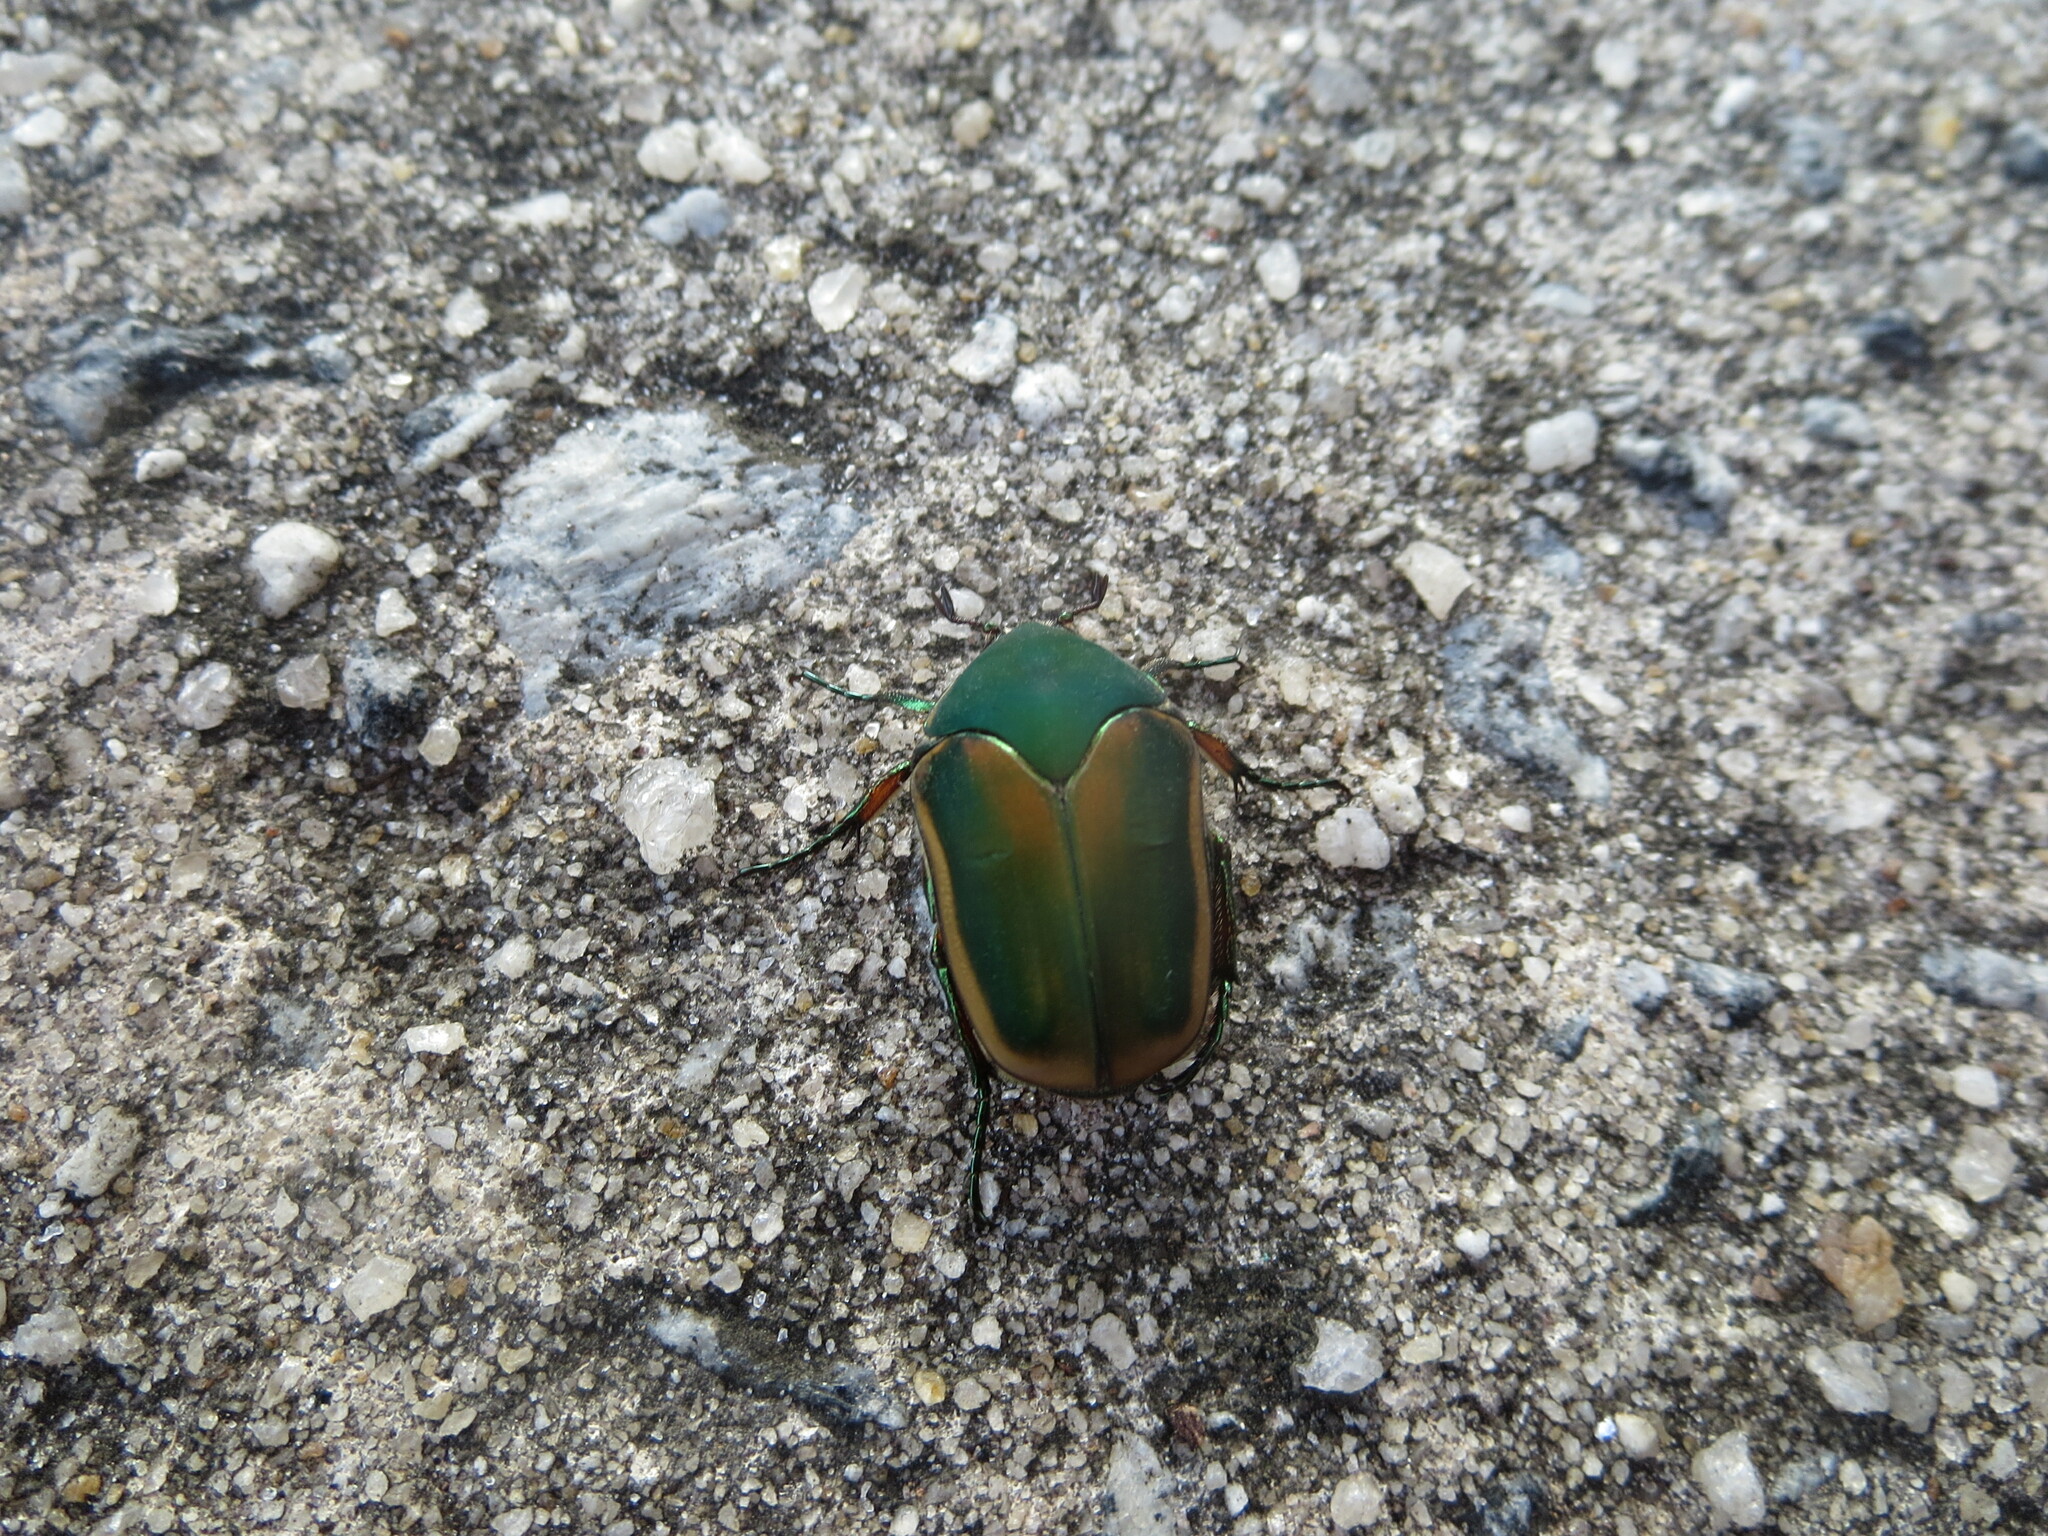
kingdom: Animalia
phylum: Arthropoda
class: Insecta
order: Coleoptera
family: Scarabaeidae
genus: Cotinis
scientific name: Cotinis nitida
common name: Common green june beetle
